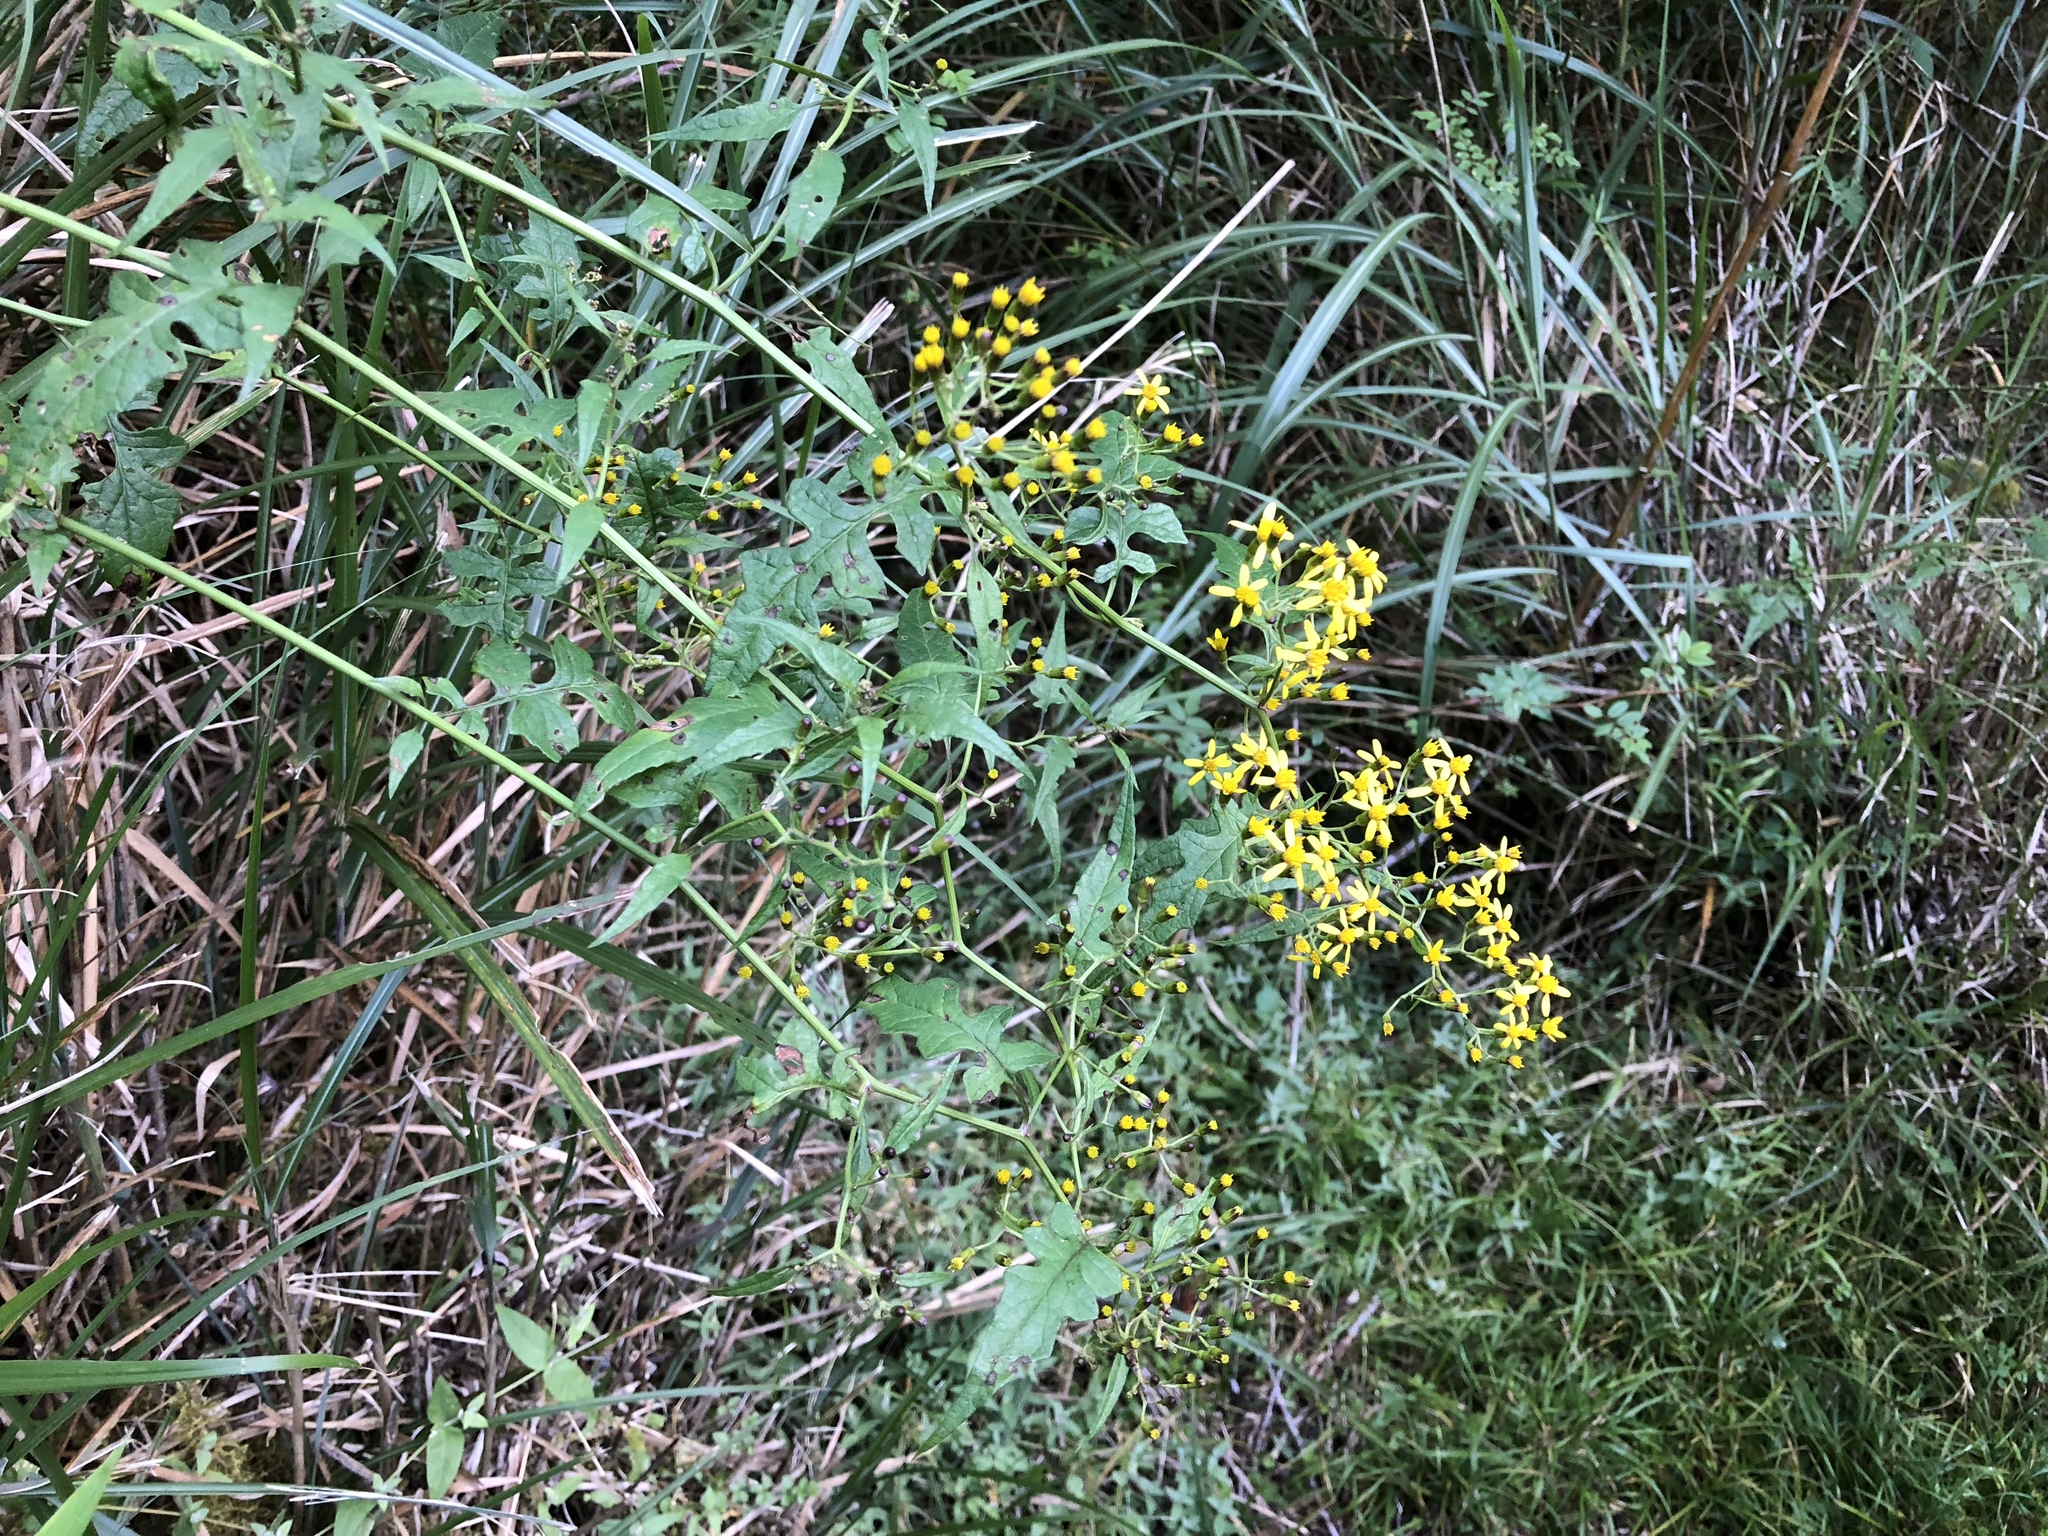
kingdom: Plantae
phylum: Tracheophyta
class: Magnoliopsida
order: Asterales
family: Asteraceae
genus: Senecio
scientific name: Senecio scandens
